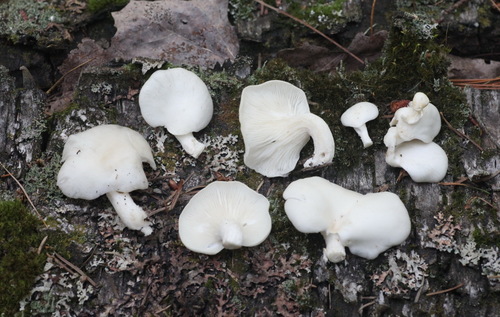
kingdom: Fungi
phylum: Basidiomycota
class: Agaricomycetes
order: Agaricales
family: Pleurotaceae
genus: Pleurotus
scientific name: Pleurotus pulmonarius
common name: Pale oyster
